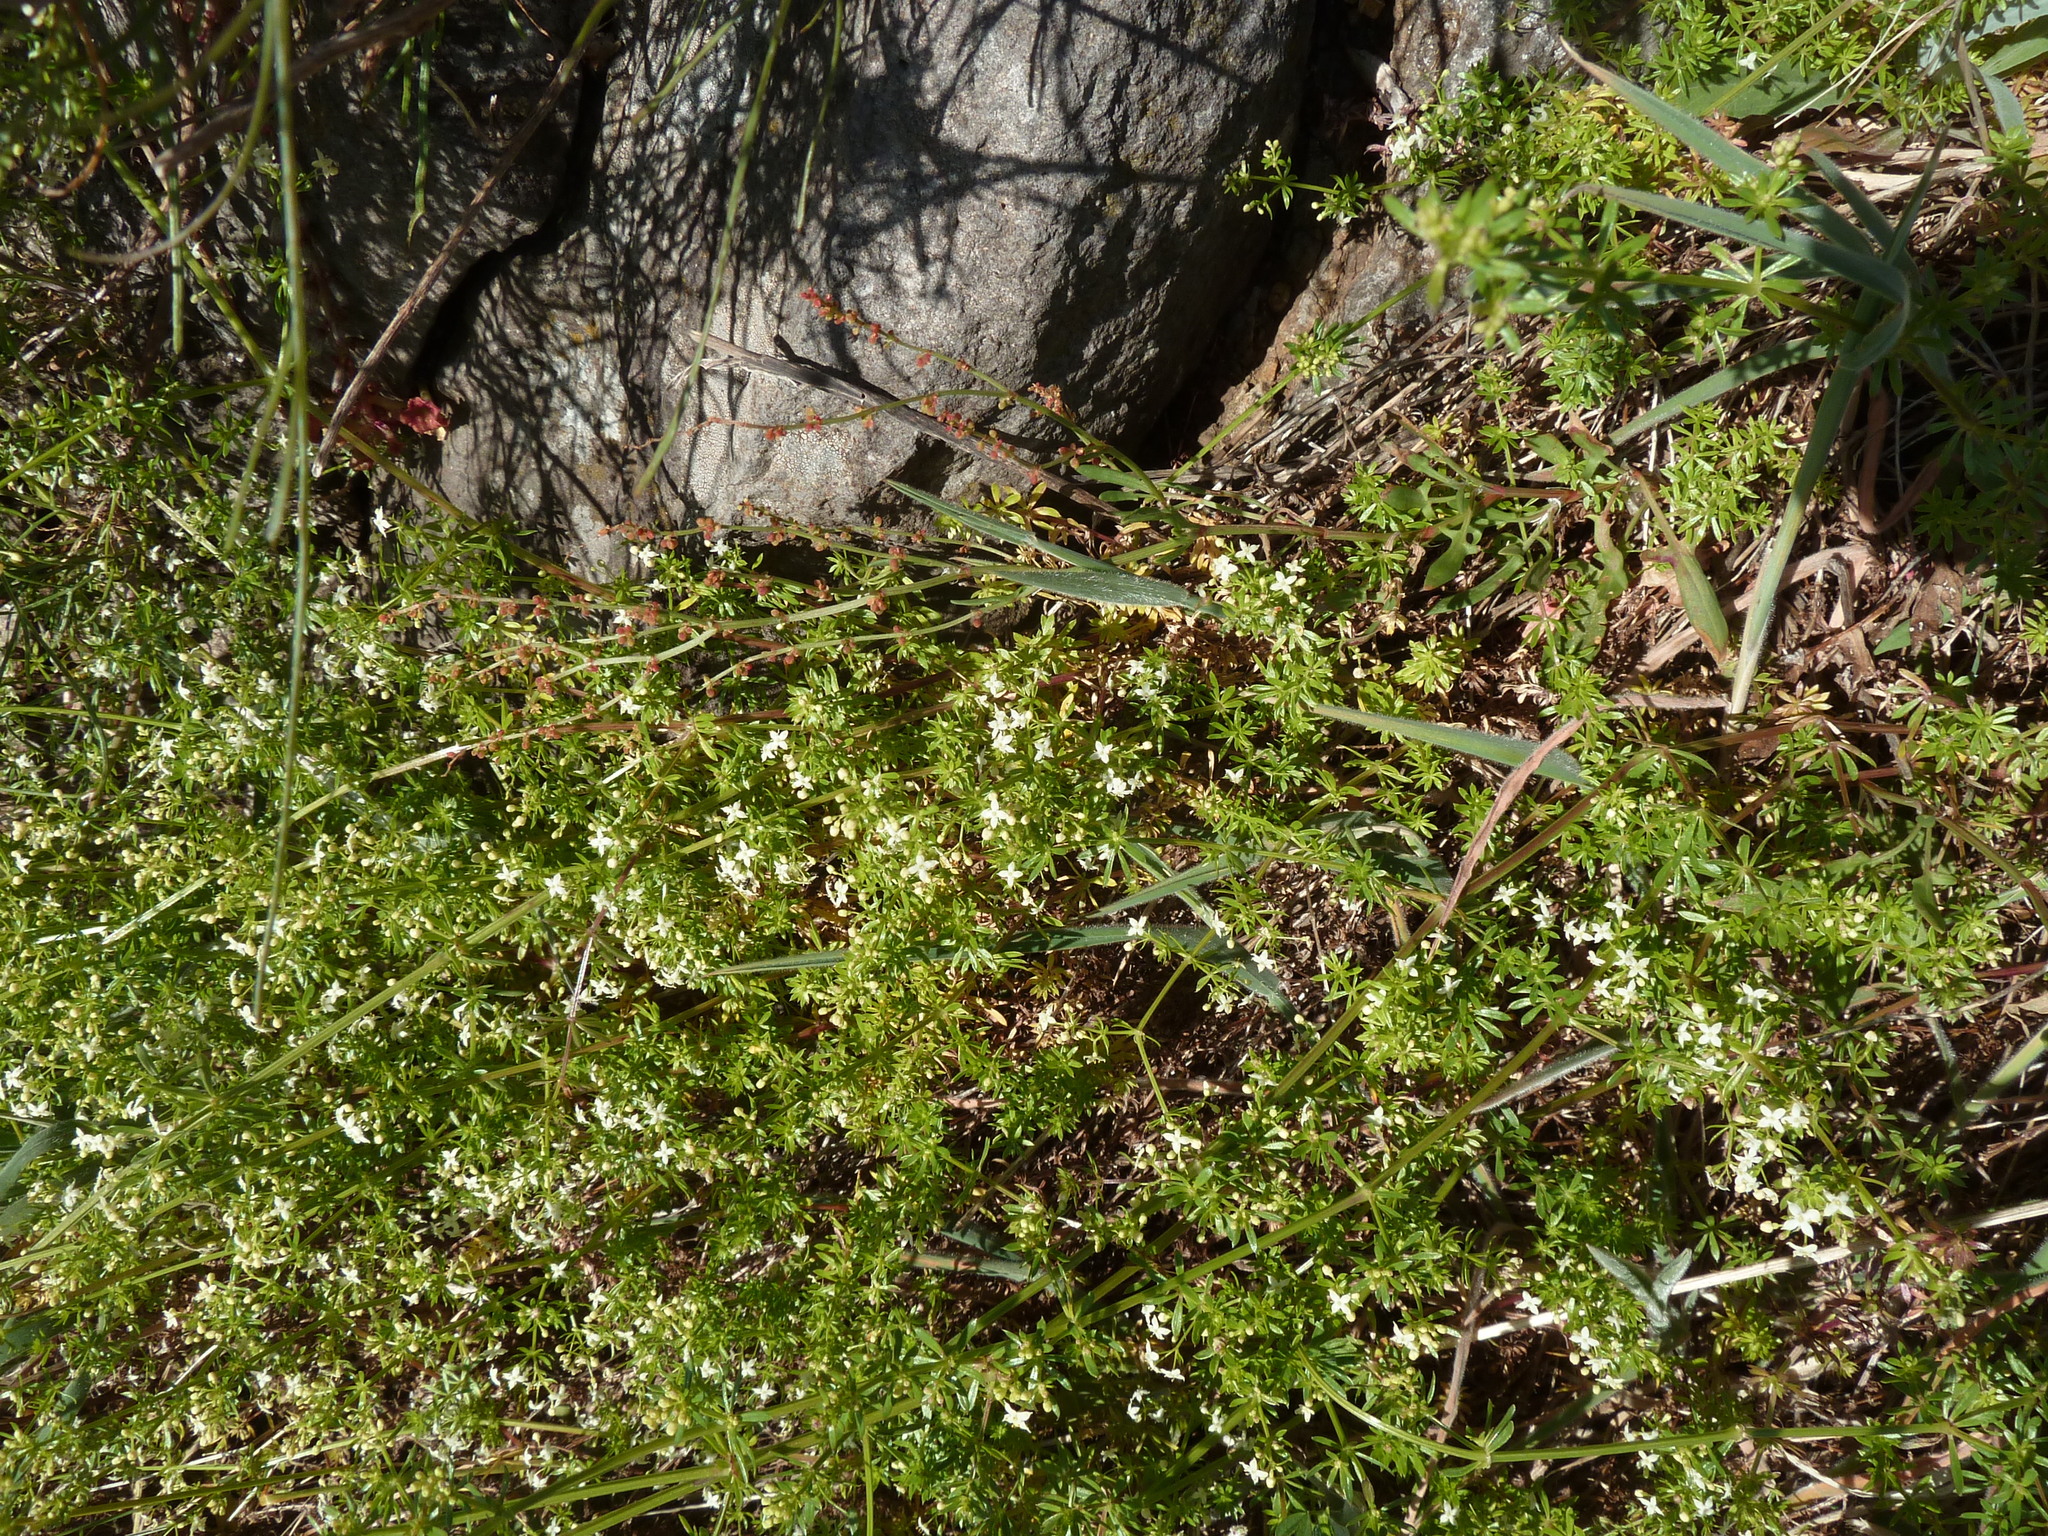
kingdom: Plantae
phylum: Tracheophyta
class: Magnoliopsida
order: Gentianales
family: Rubiaceae
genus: Galium
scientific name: Galium productum
